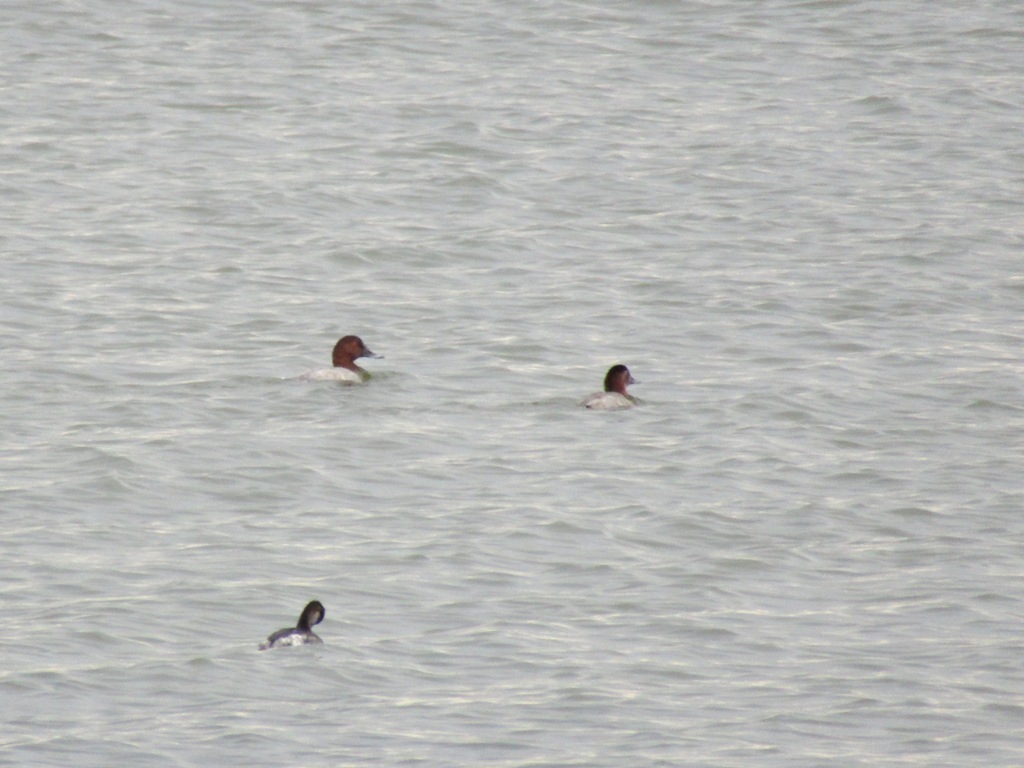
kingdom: Animalia
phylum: Chordata
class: Aves
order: Anseriformes
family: Anatidae
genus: Aythya
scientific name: Aythya ferina
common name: Common pochard
